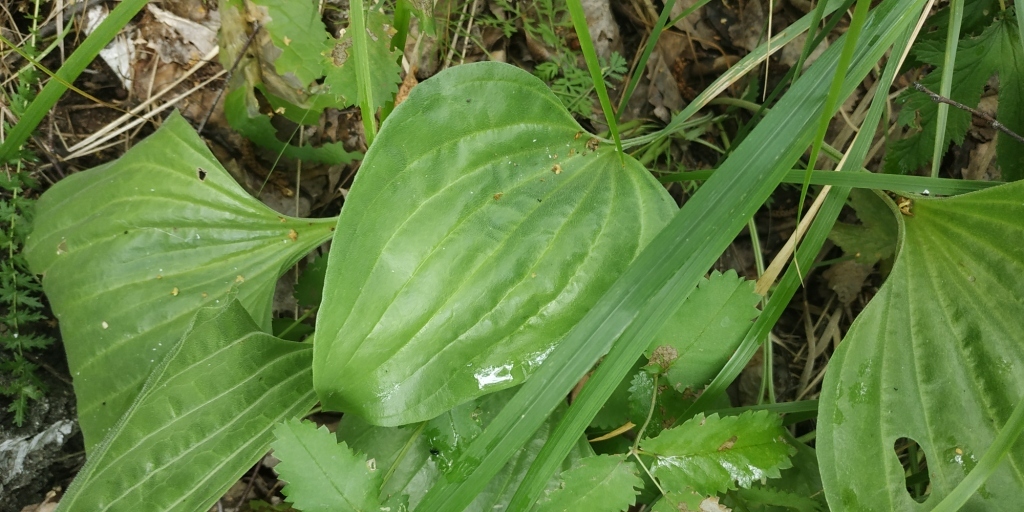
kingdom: Plantae
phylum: Tracheophyta
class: Magnoliopsida
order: Lamiales
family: Plantaginaceae
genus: Plantago
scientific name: Plantago major
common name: Common plantain
